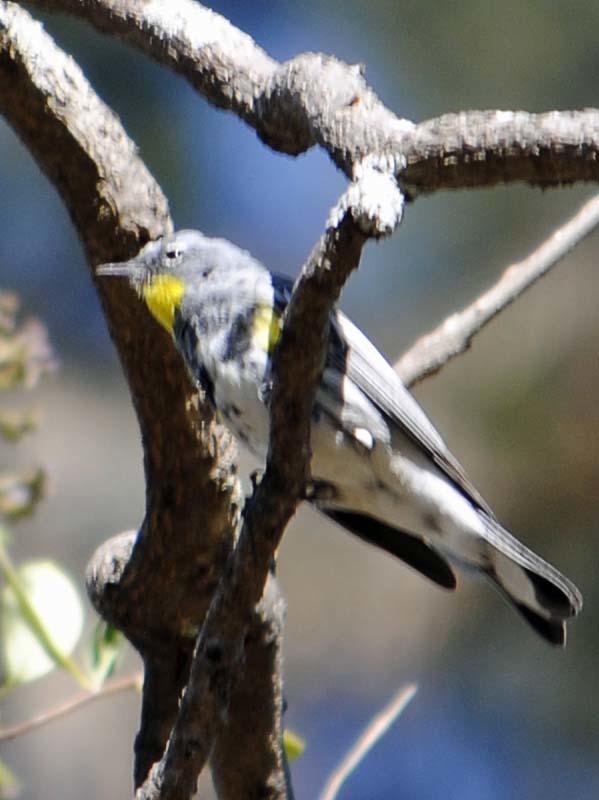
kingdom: Animalia
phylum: Chordata
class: Aves
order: Passeriformes
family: Parulidae
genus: Setophaga
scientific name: Setophaga auduboni
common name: Audubon's warbler
